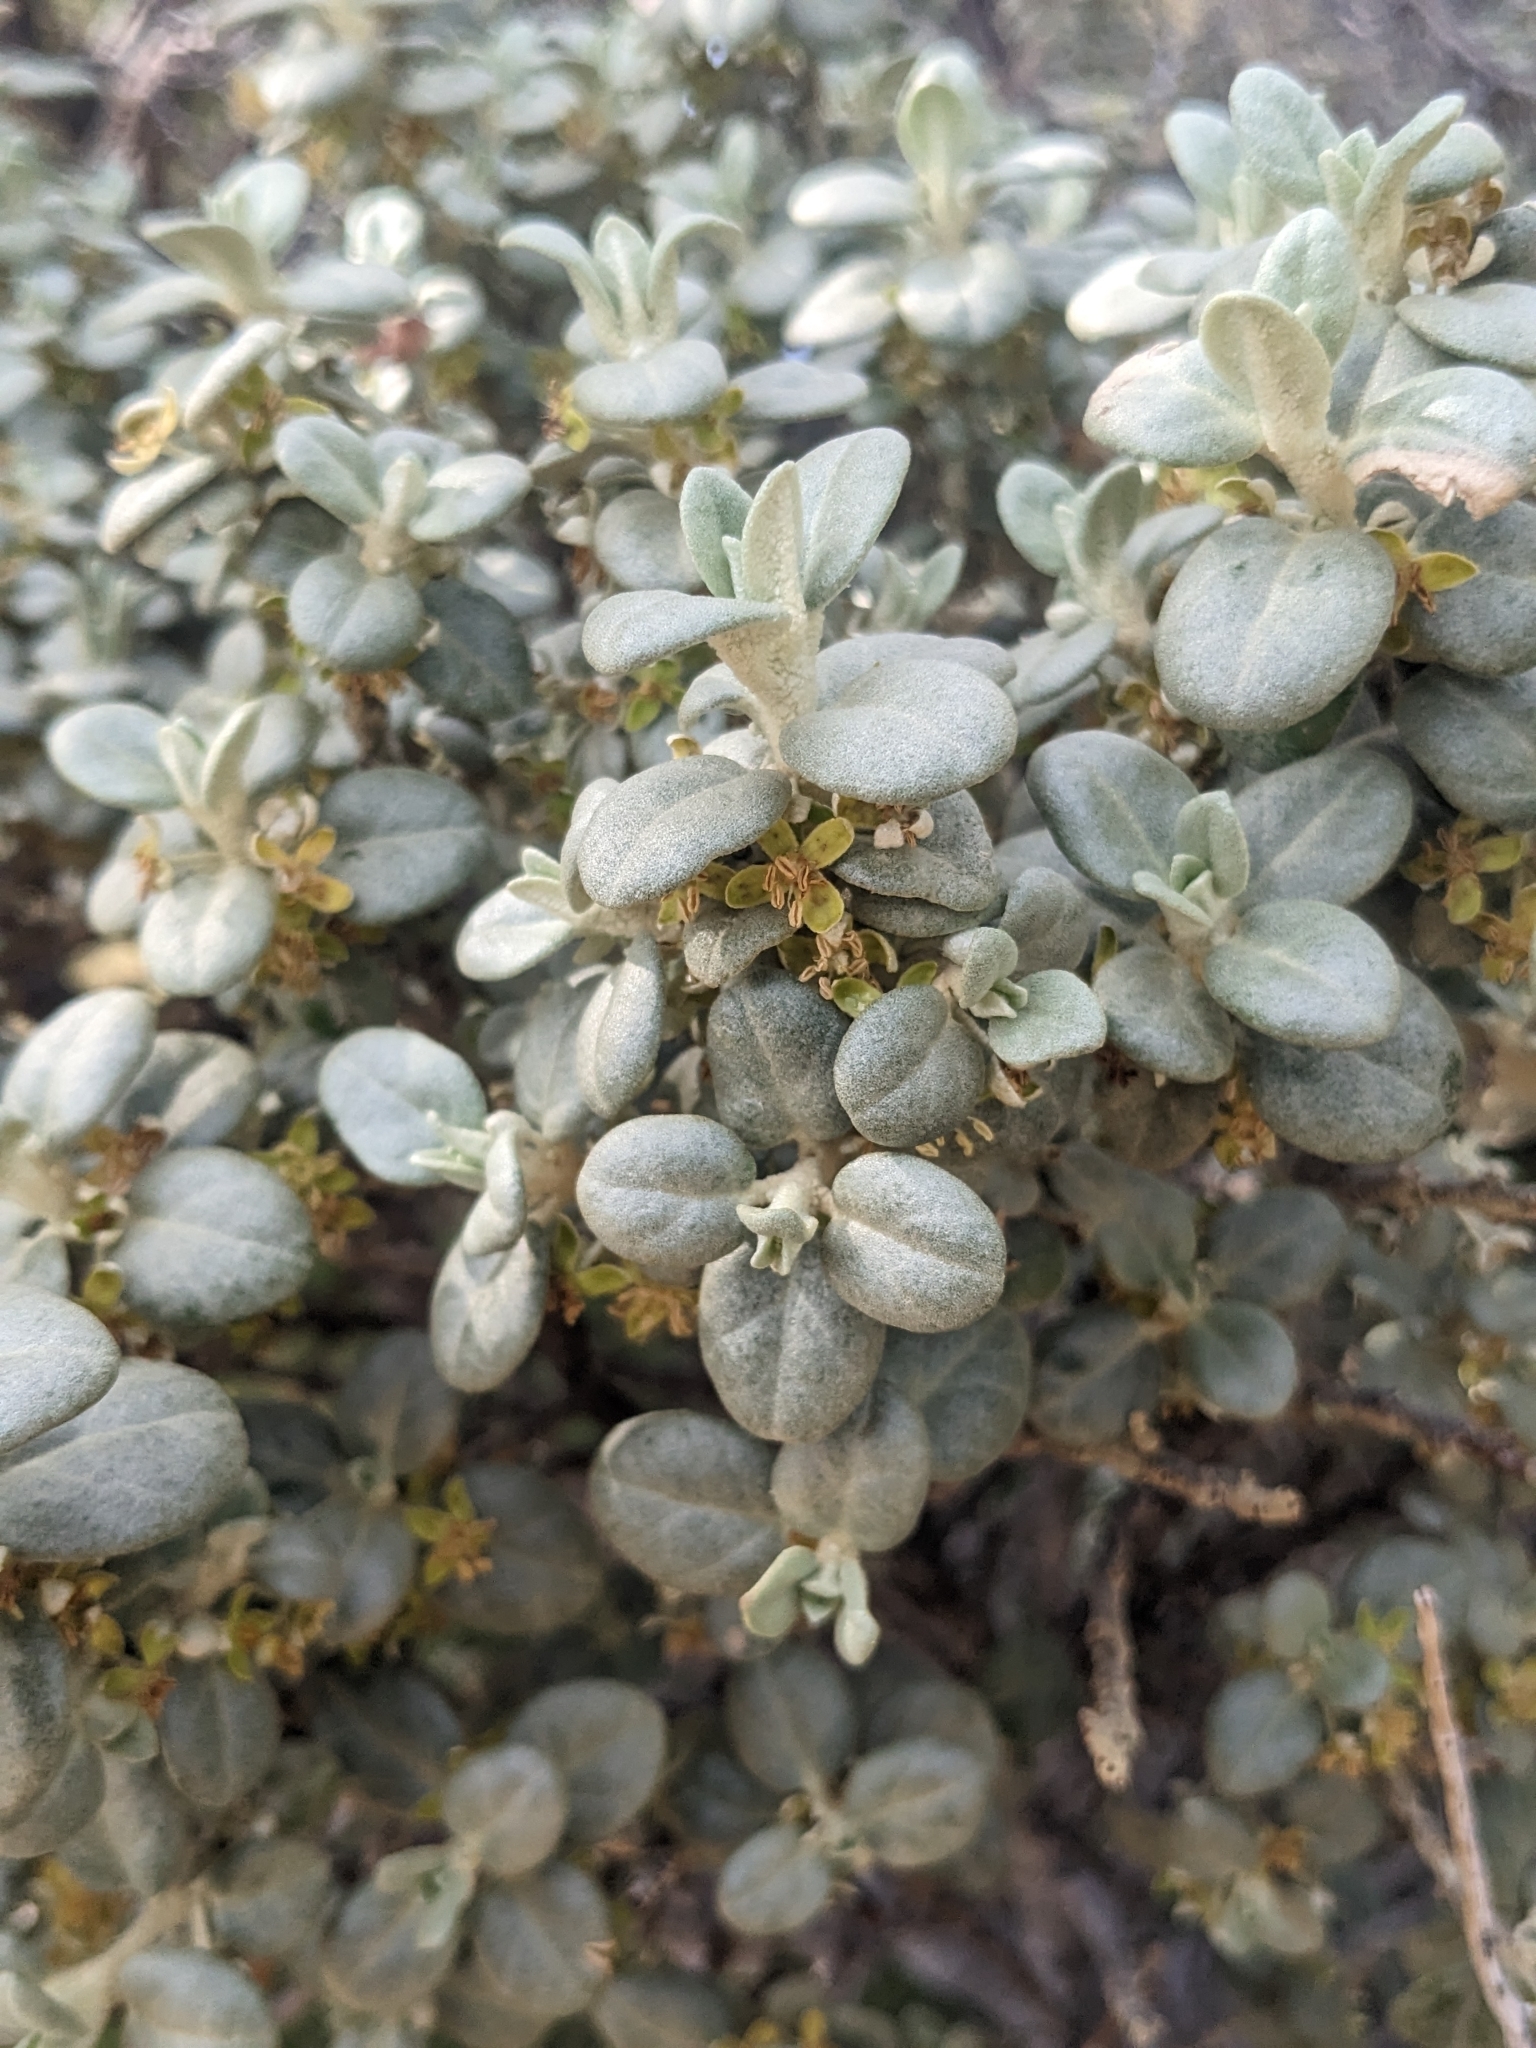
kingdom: Plantae
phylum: Tracheophyta
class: Magnoliopsida
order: Rosales
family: Elaeagnaceae
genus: Shepherdia
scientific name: Shepherdia rotundifolia
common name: Silverscale
